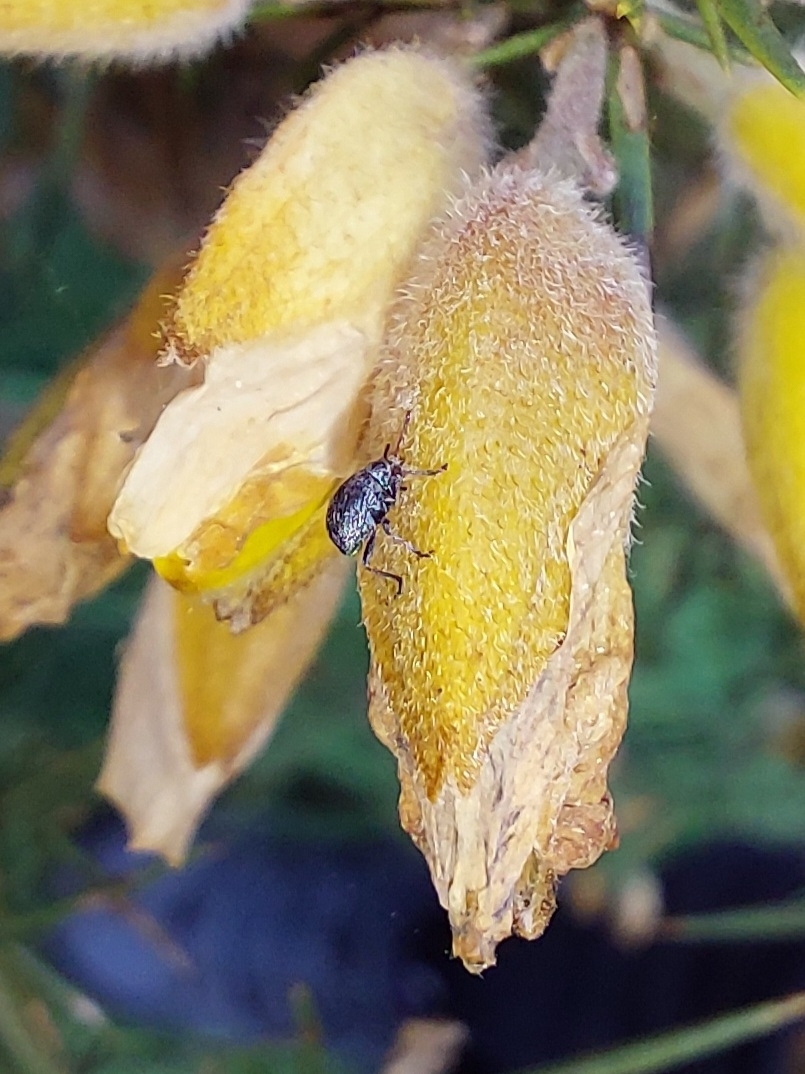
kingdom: Animalia
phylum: Arthropoda
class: Insecta
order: Coleoptera
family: Brentidae
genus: Exapion
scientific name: Exapion ulicis
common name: Gorse seed weevil
